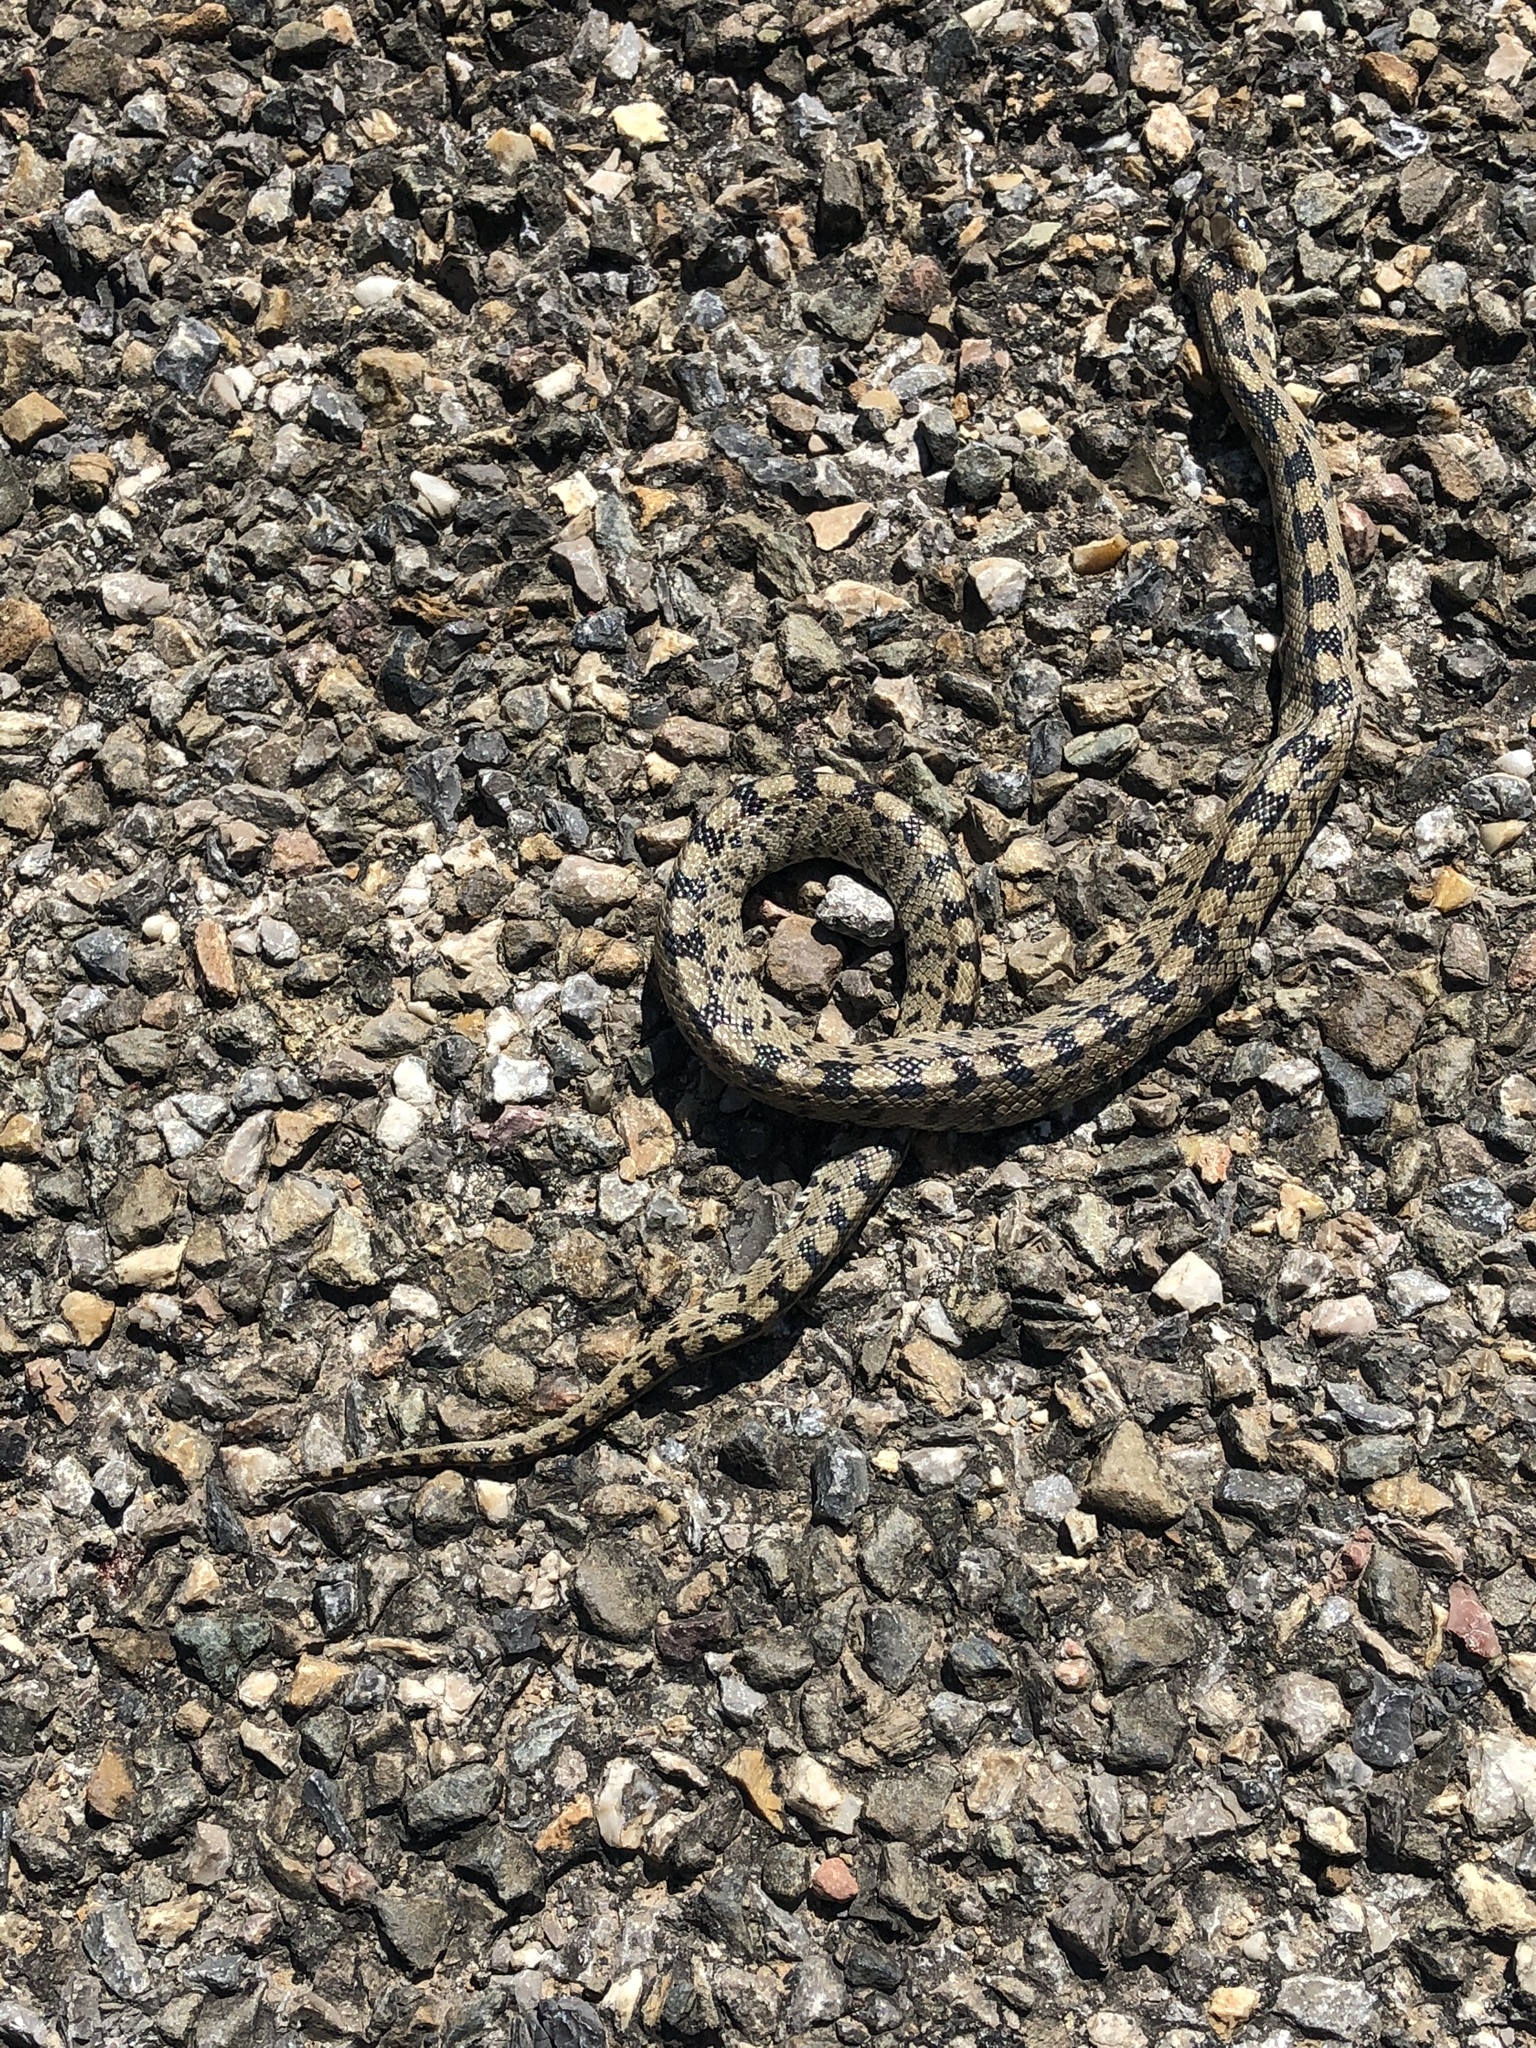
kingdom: Animalia
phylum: Chordata
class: Squamata
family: Colubridae
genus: Zamenis
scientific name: Zamenis scalaris
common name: Ladder snakes
